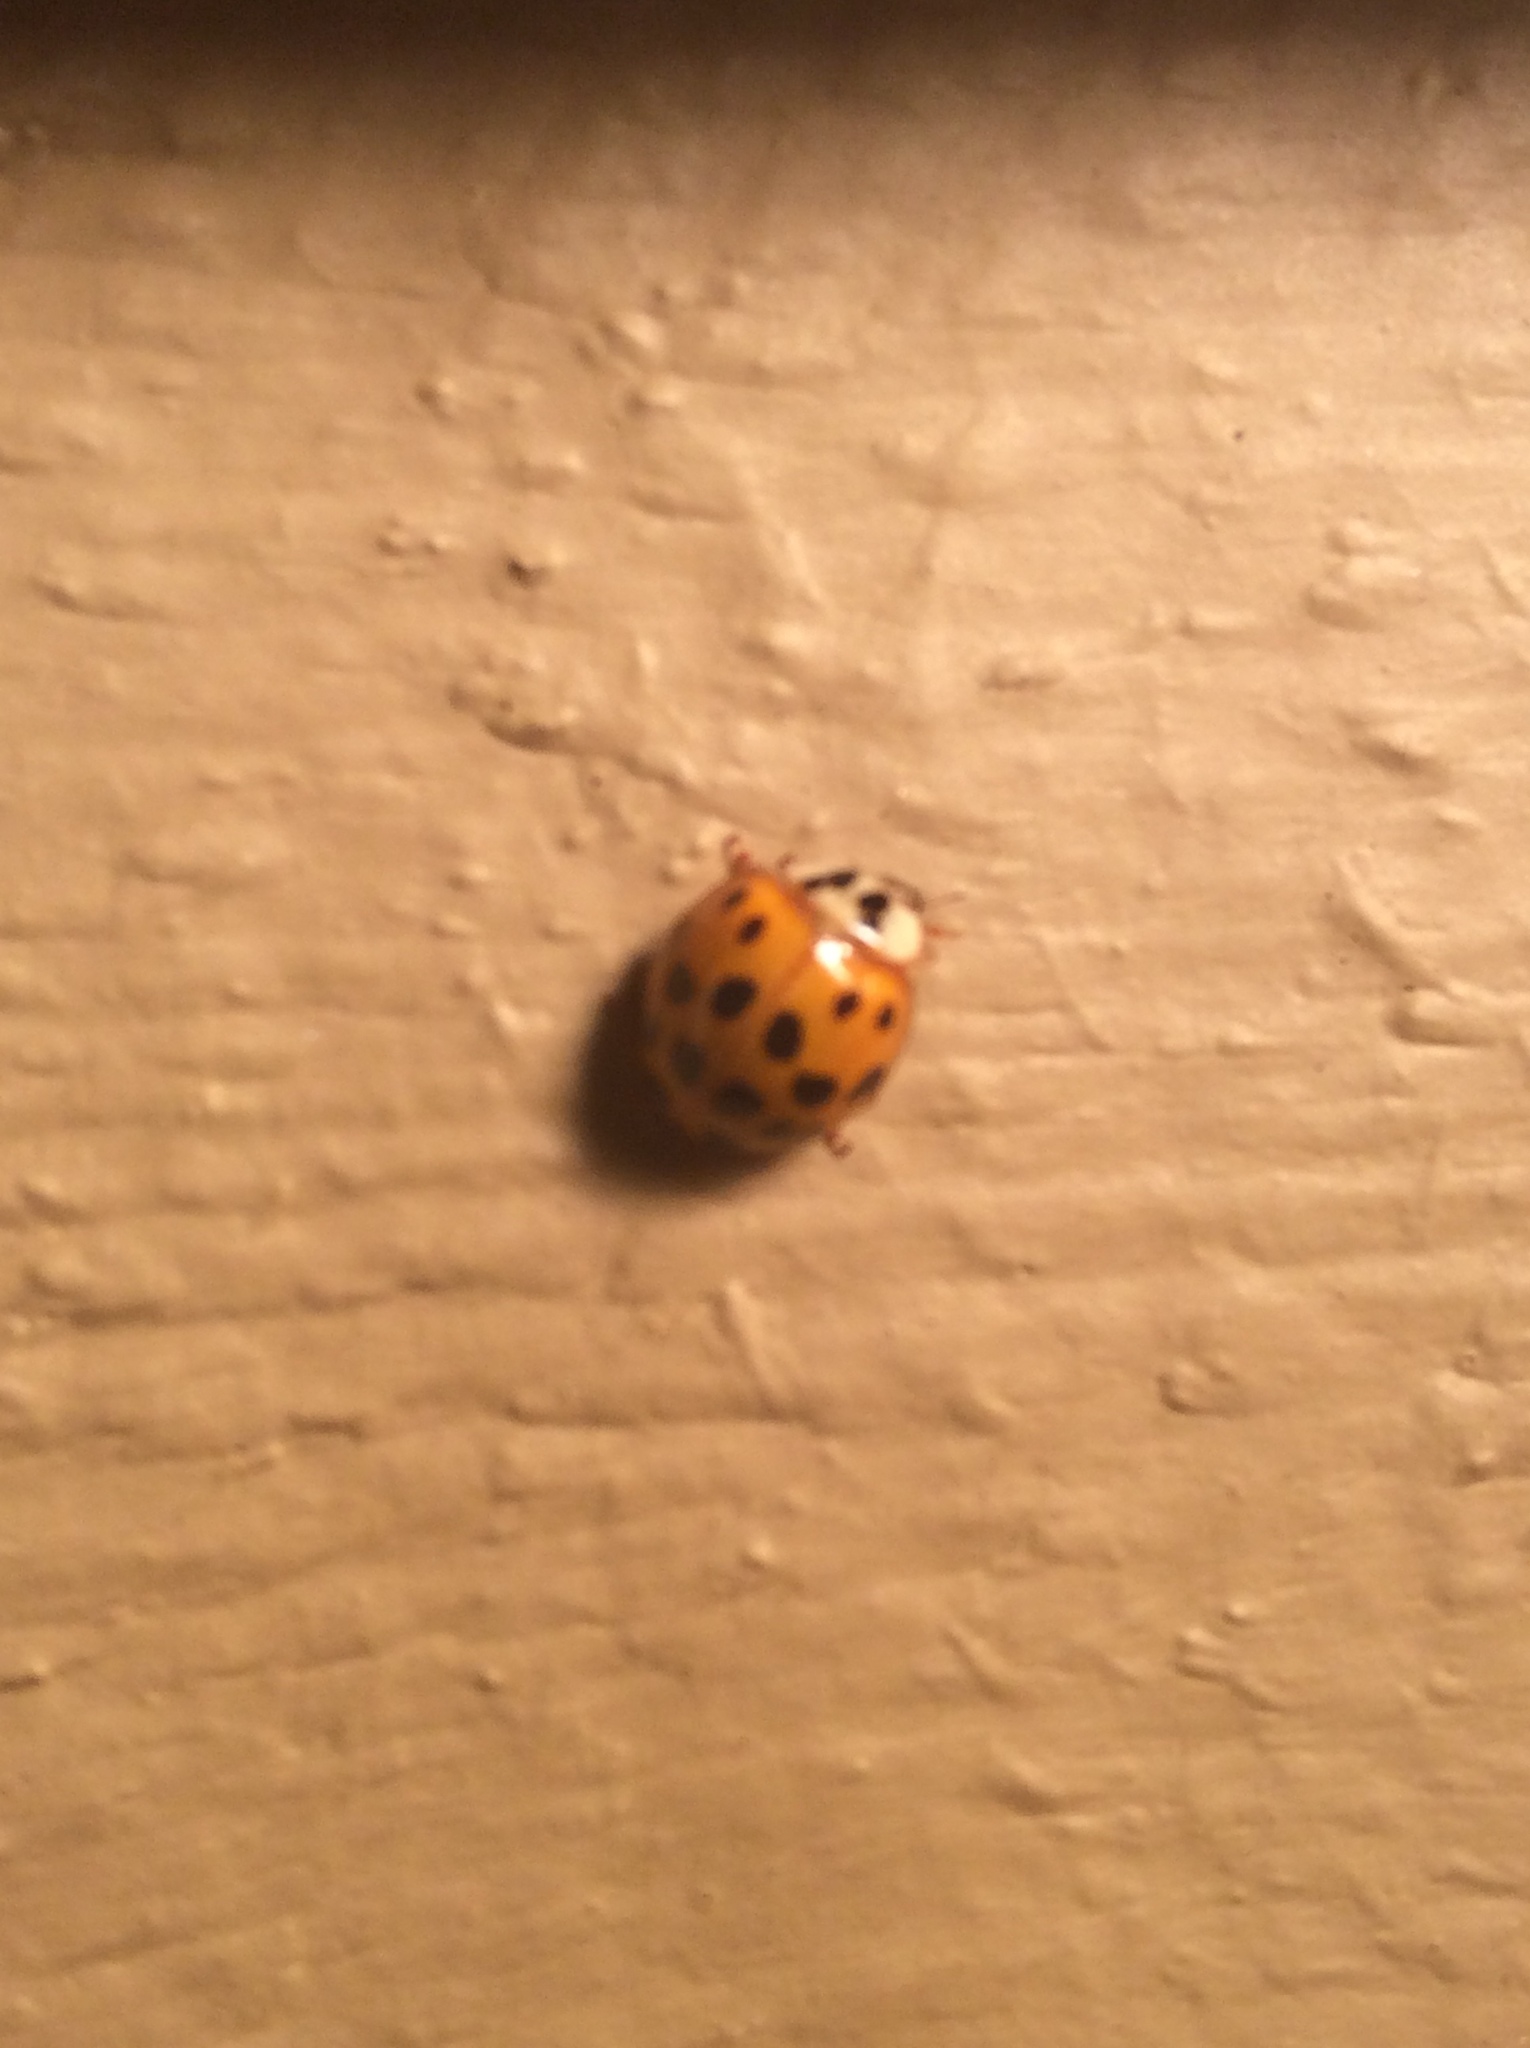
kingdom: Animalia
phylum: Arthropoda
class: Insecta
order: Coleoptera
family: Coccinellidae
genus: Harmonia
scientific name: Harmonia axyridis
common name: Harlequin ladybird
